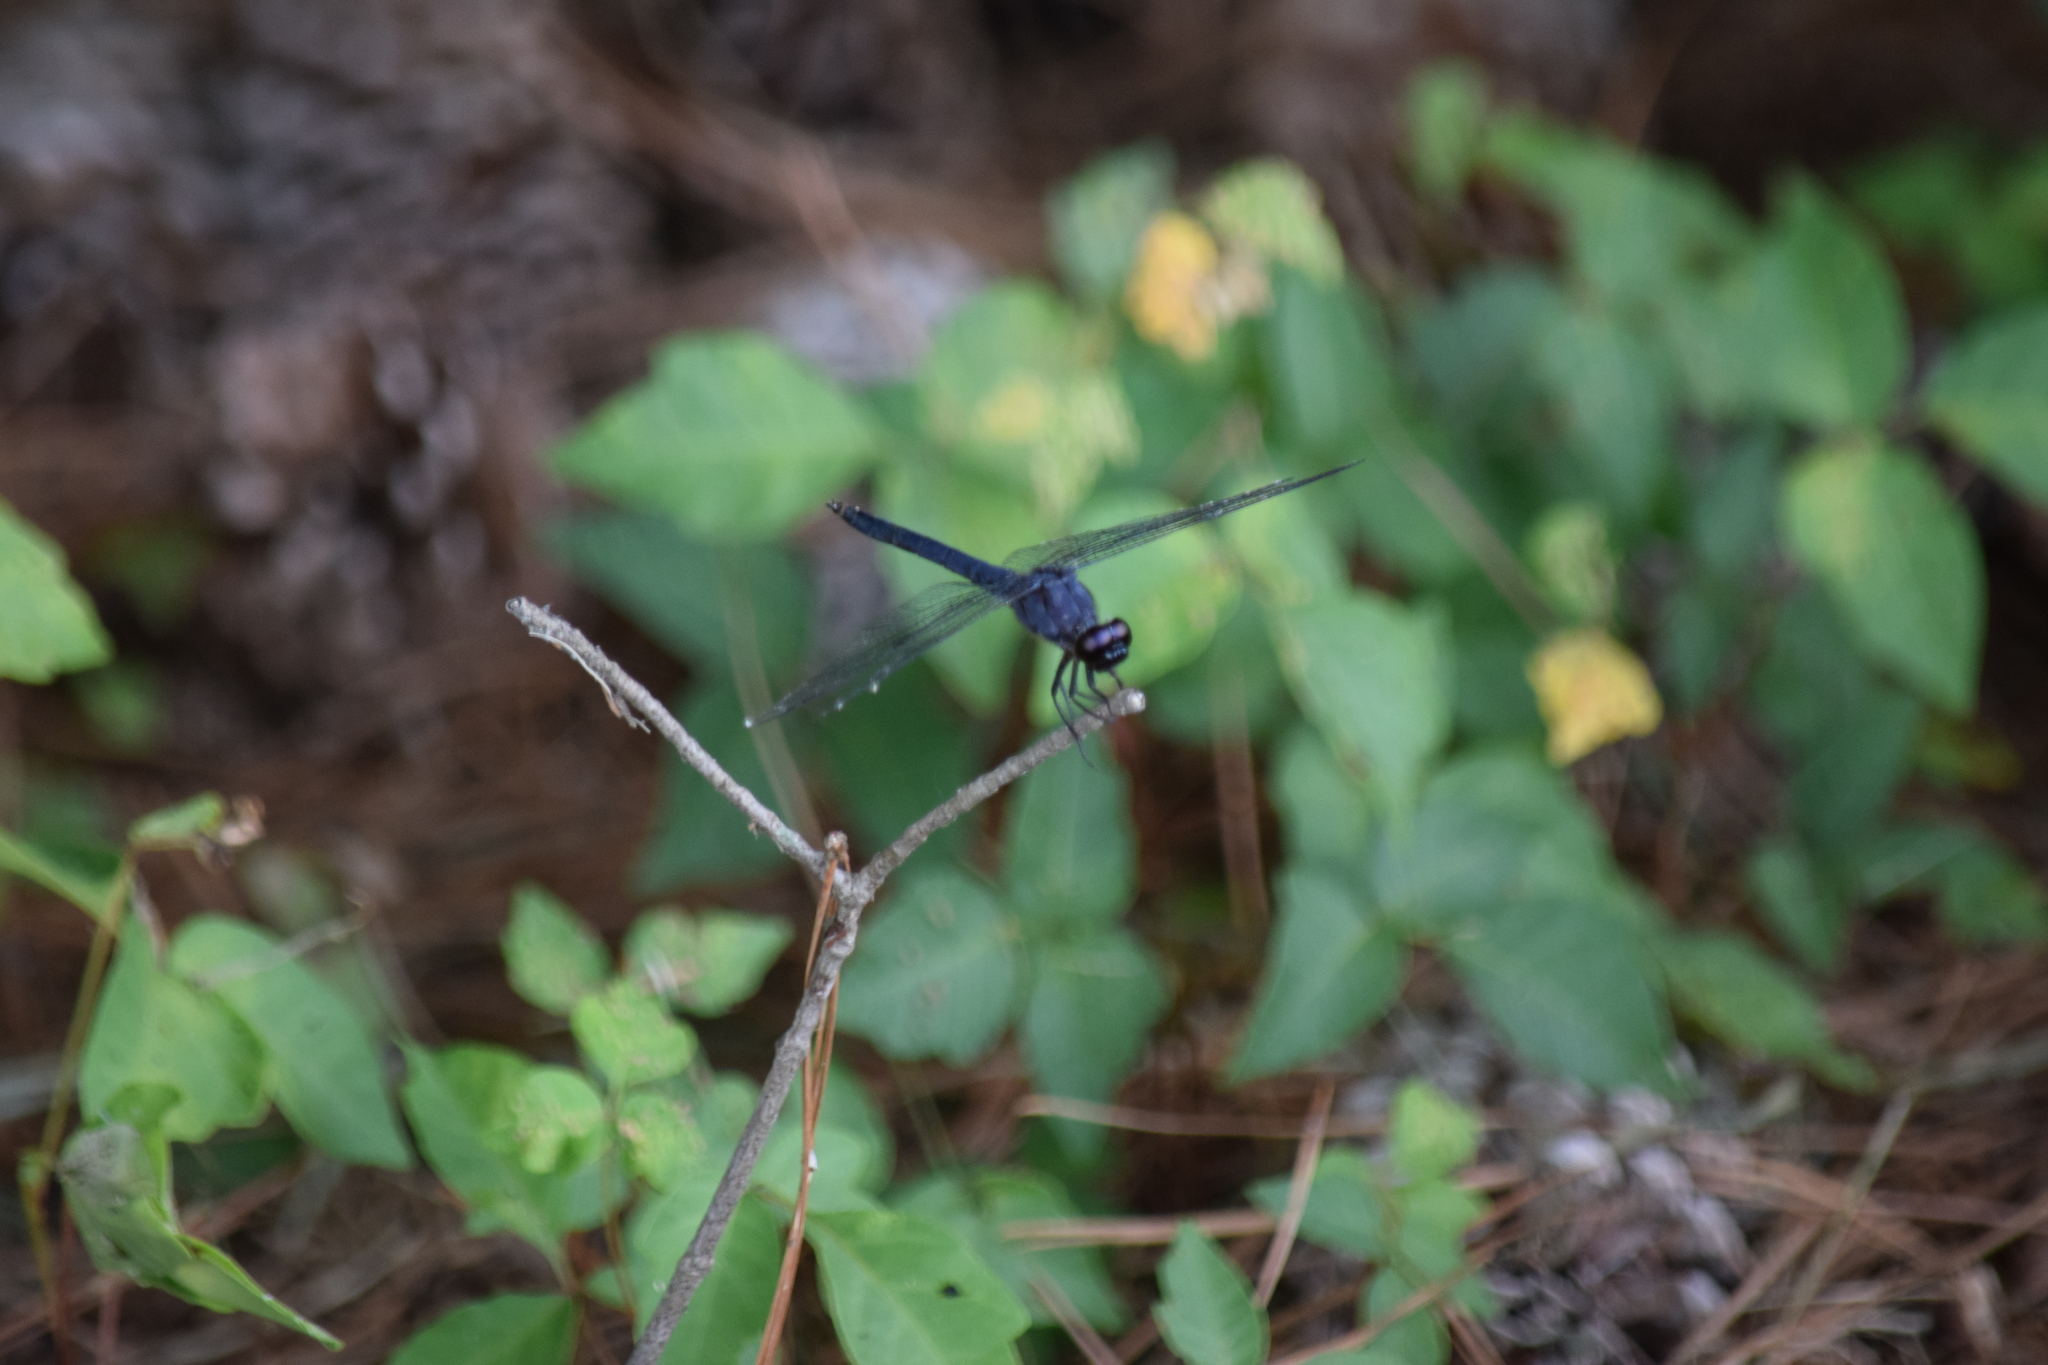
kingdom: Animalia
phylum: Arthropoda
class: Insecta
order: Odonata
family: Libellulidae
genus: Libellula
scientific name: Libellula incesta
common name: Slaty skimmer
